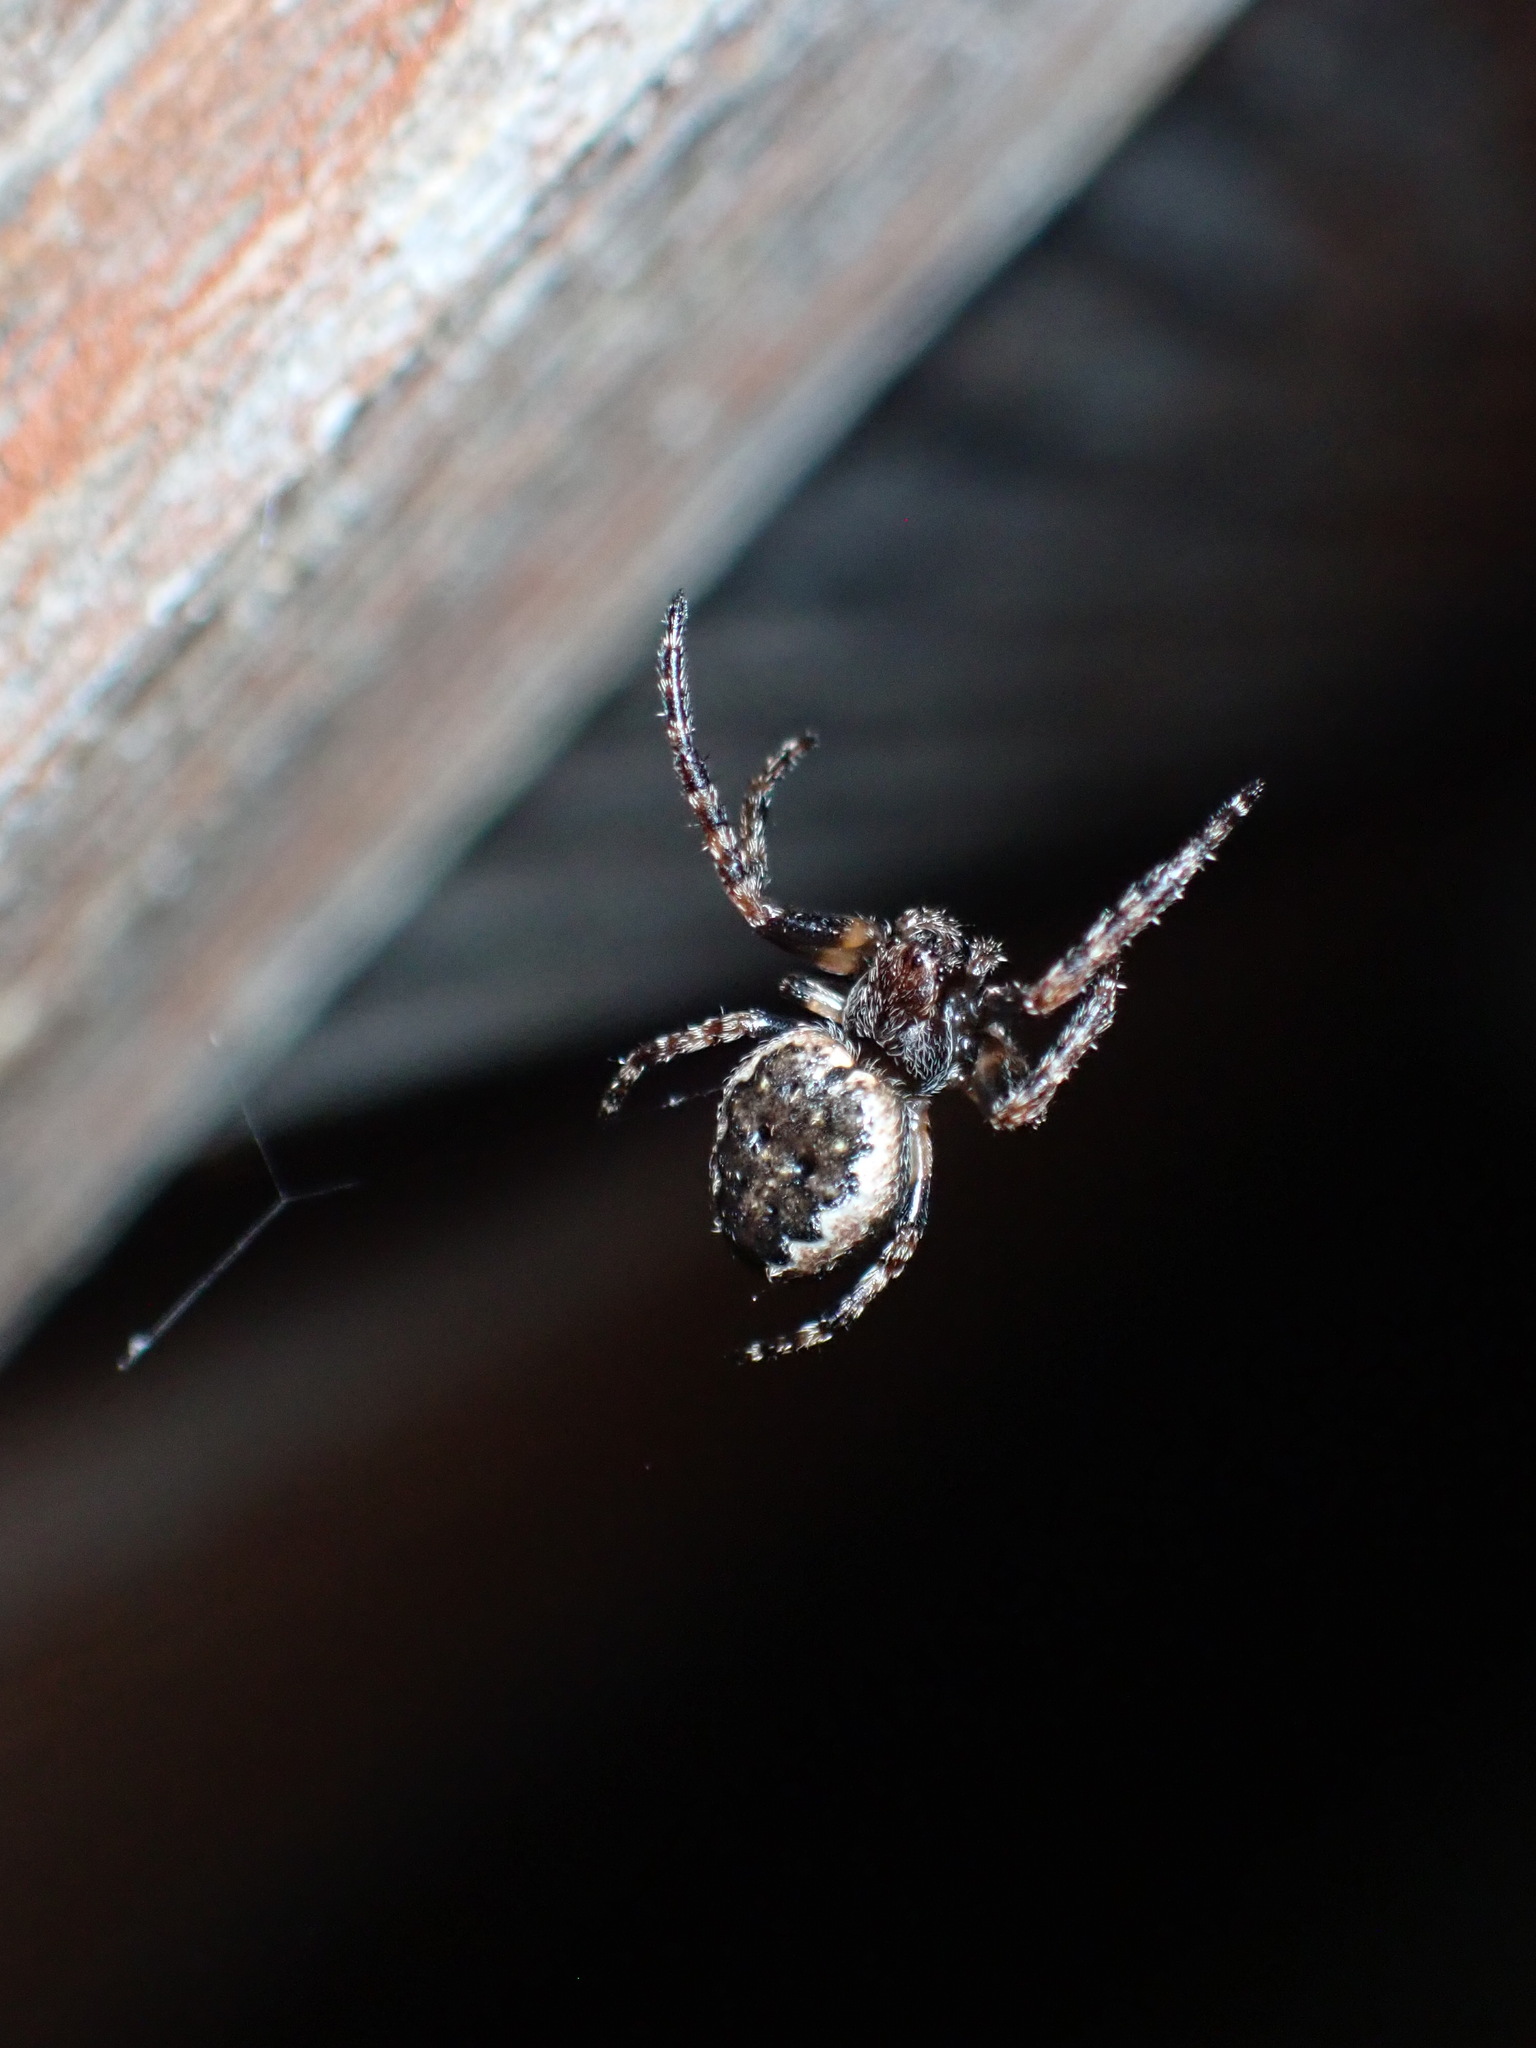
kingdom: Animalia
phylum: Arthropoda
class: Arachnida
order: Araneae
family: Araneidae
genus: Nuctenea
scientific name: Nuctenea umbratica
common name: Toad spider
